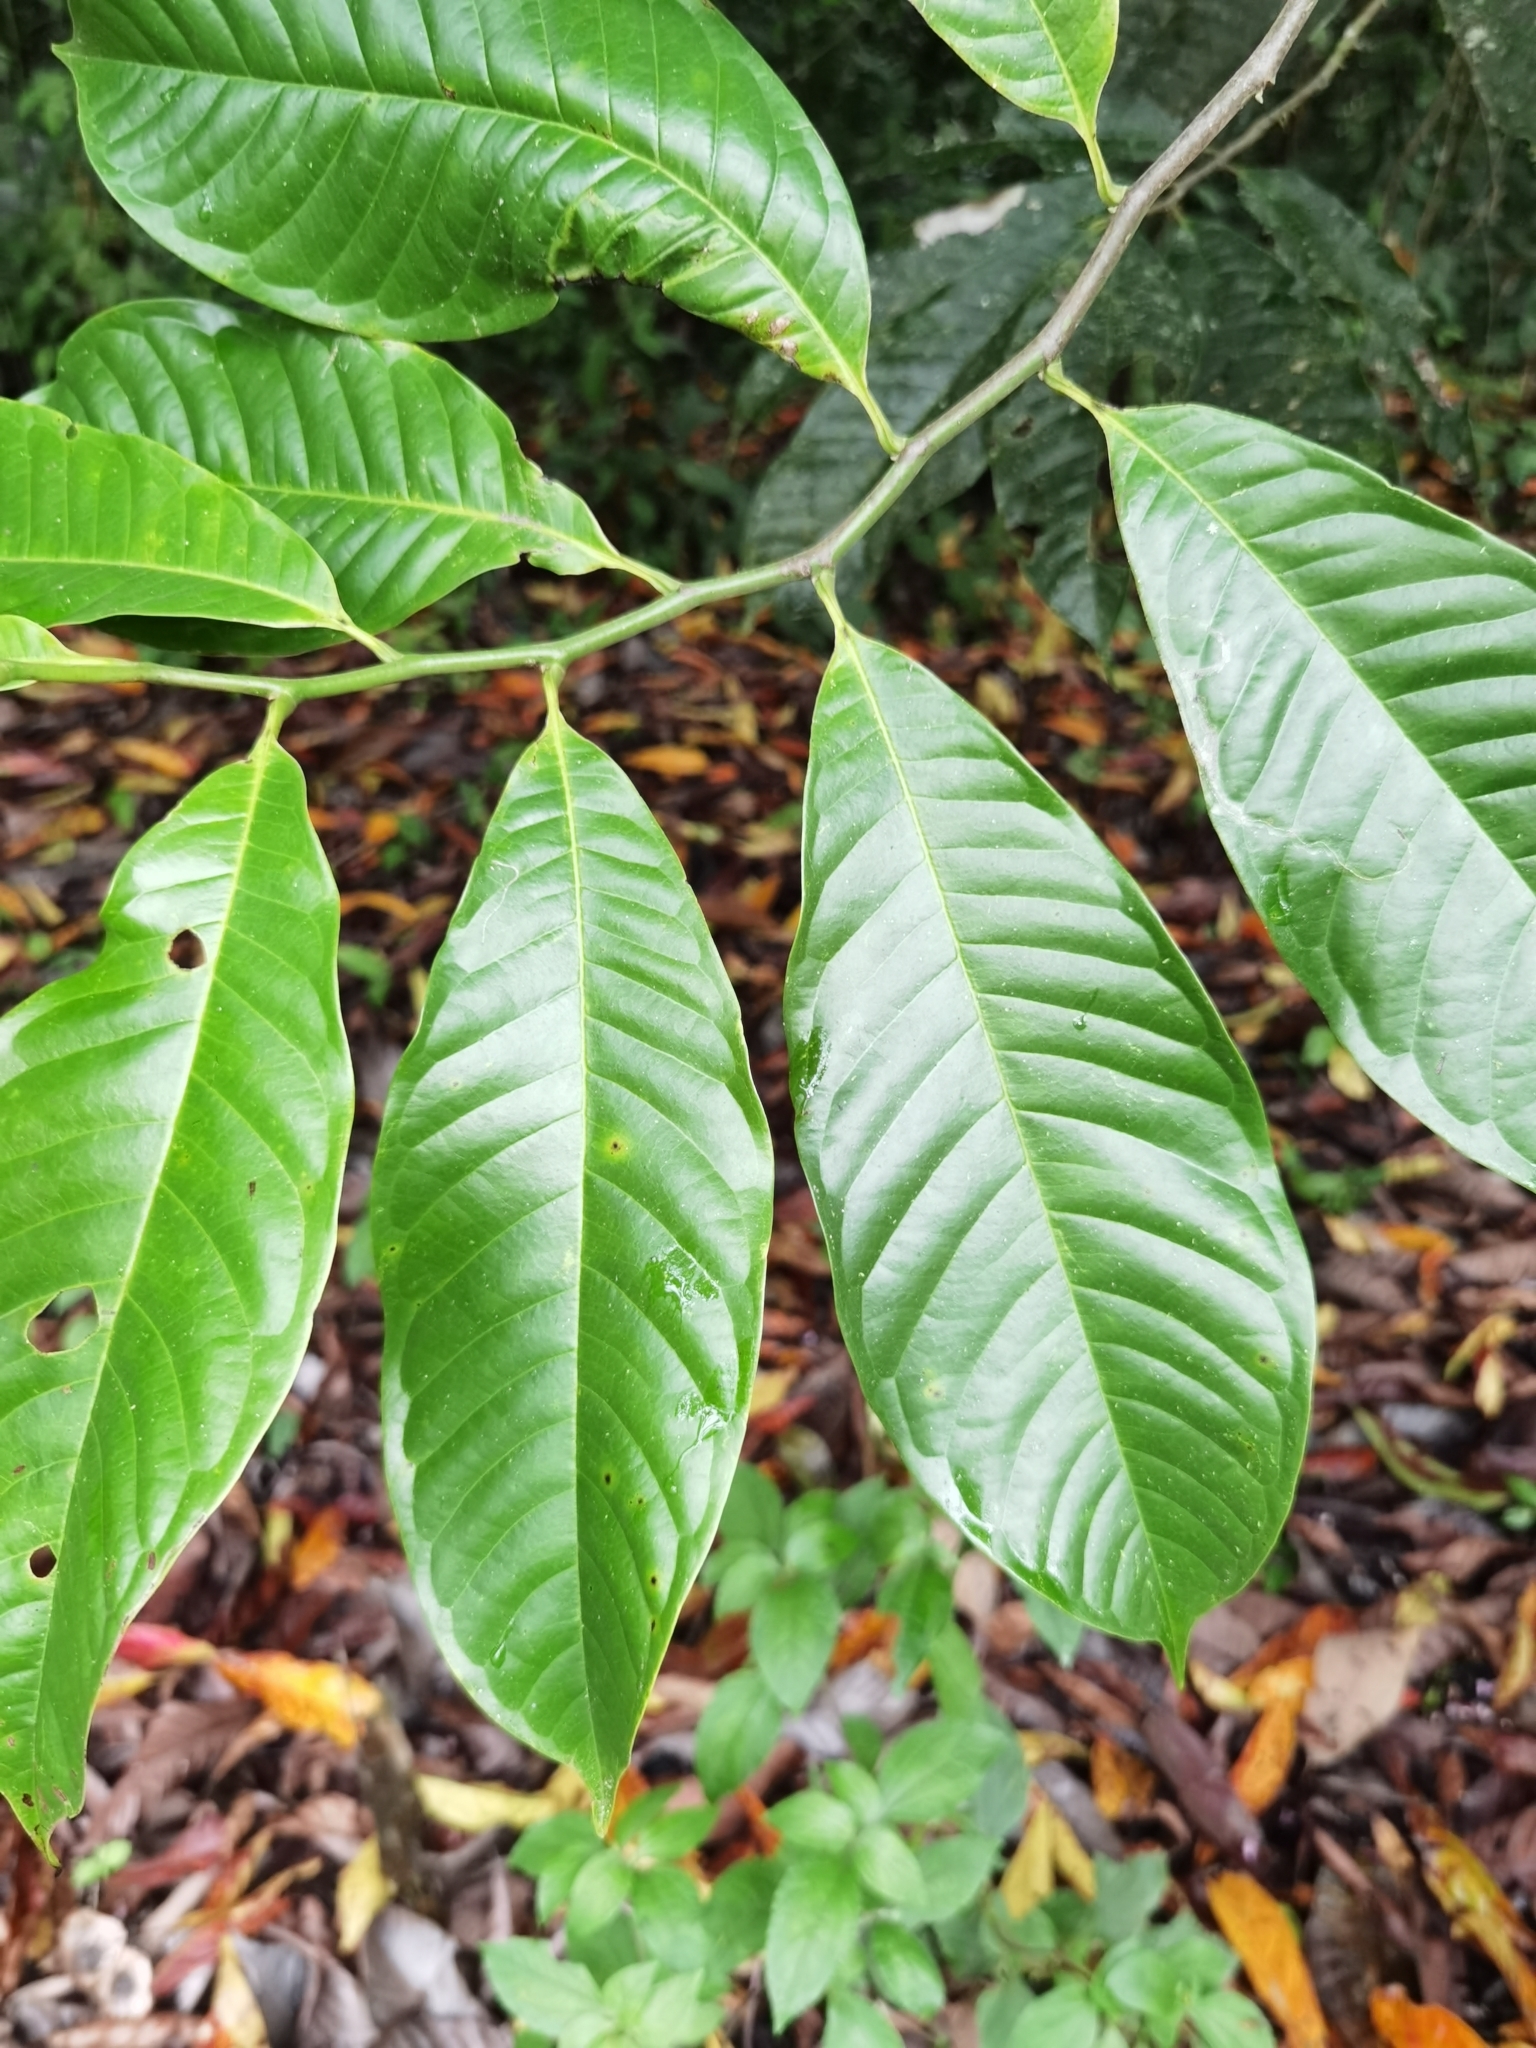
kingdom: Plantae
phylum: Tracheophyta
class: Magnoliopsida
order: Magnoliales
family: Annonaceae
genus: Guatteria
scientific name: Guatteria rostrata
